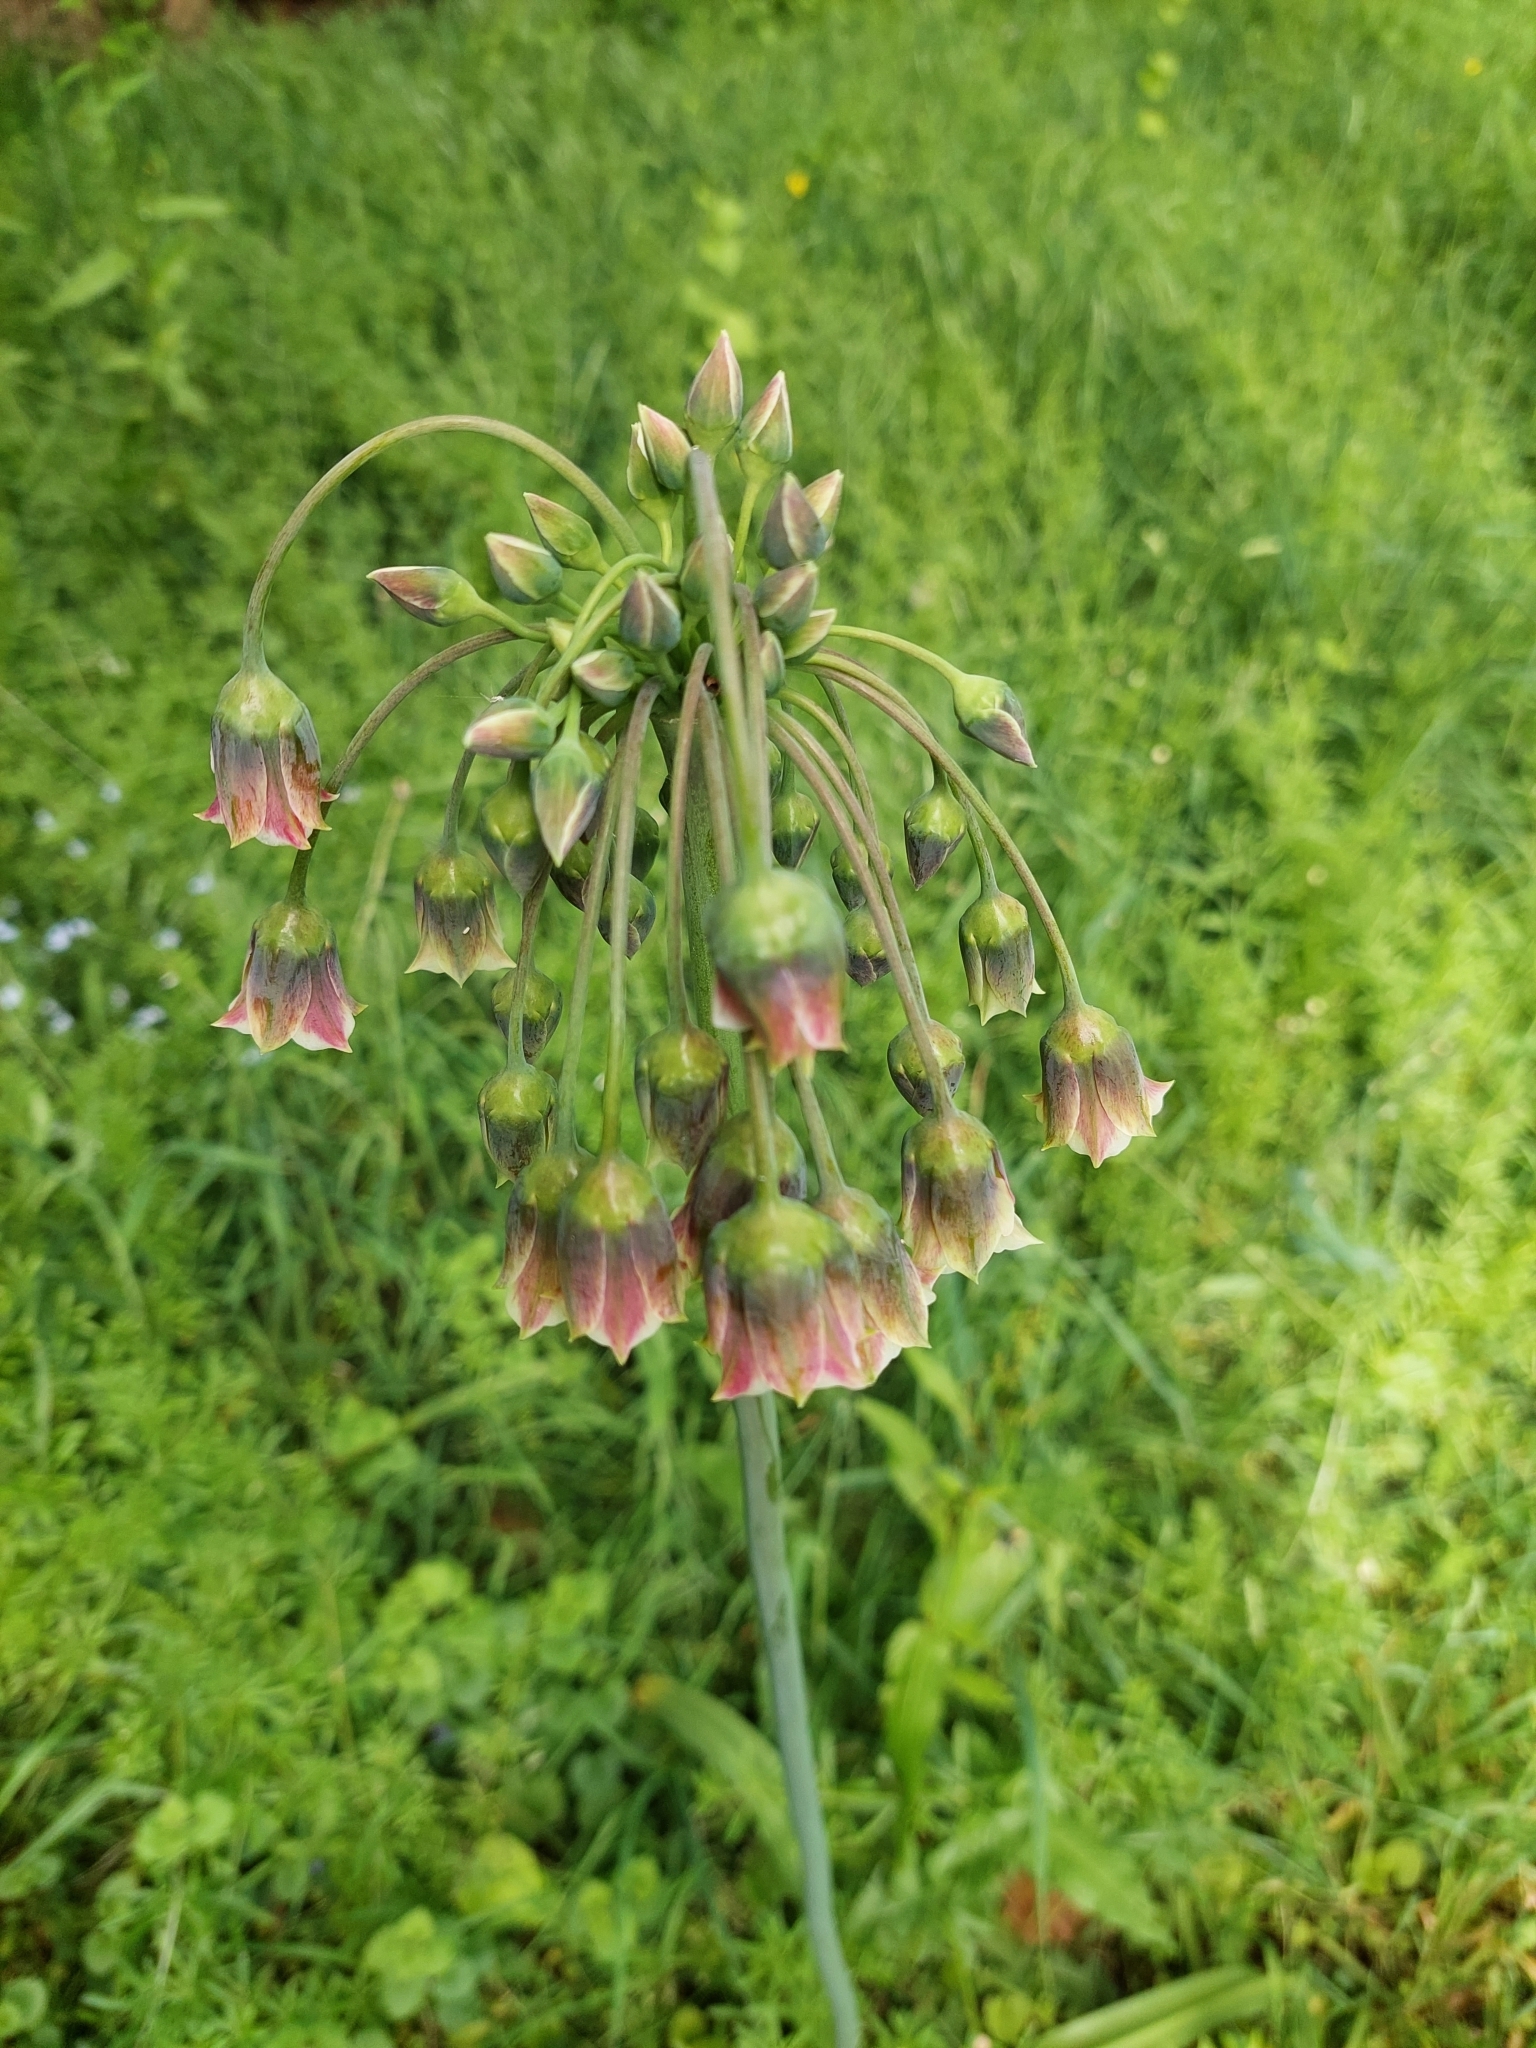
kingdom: Plantae
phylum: Tracheophyta
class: Liliopsida
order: Asparagales
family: Amaryllidaceae
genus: Allium
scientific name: Allium siculum
